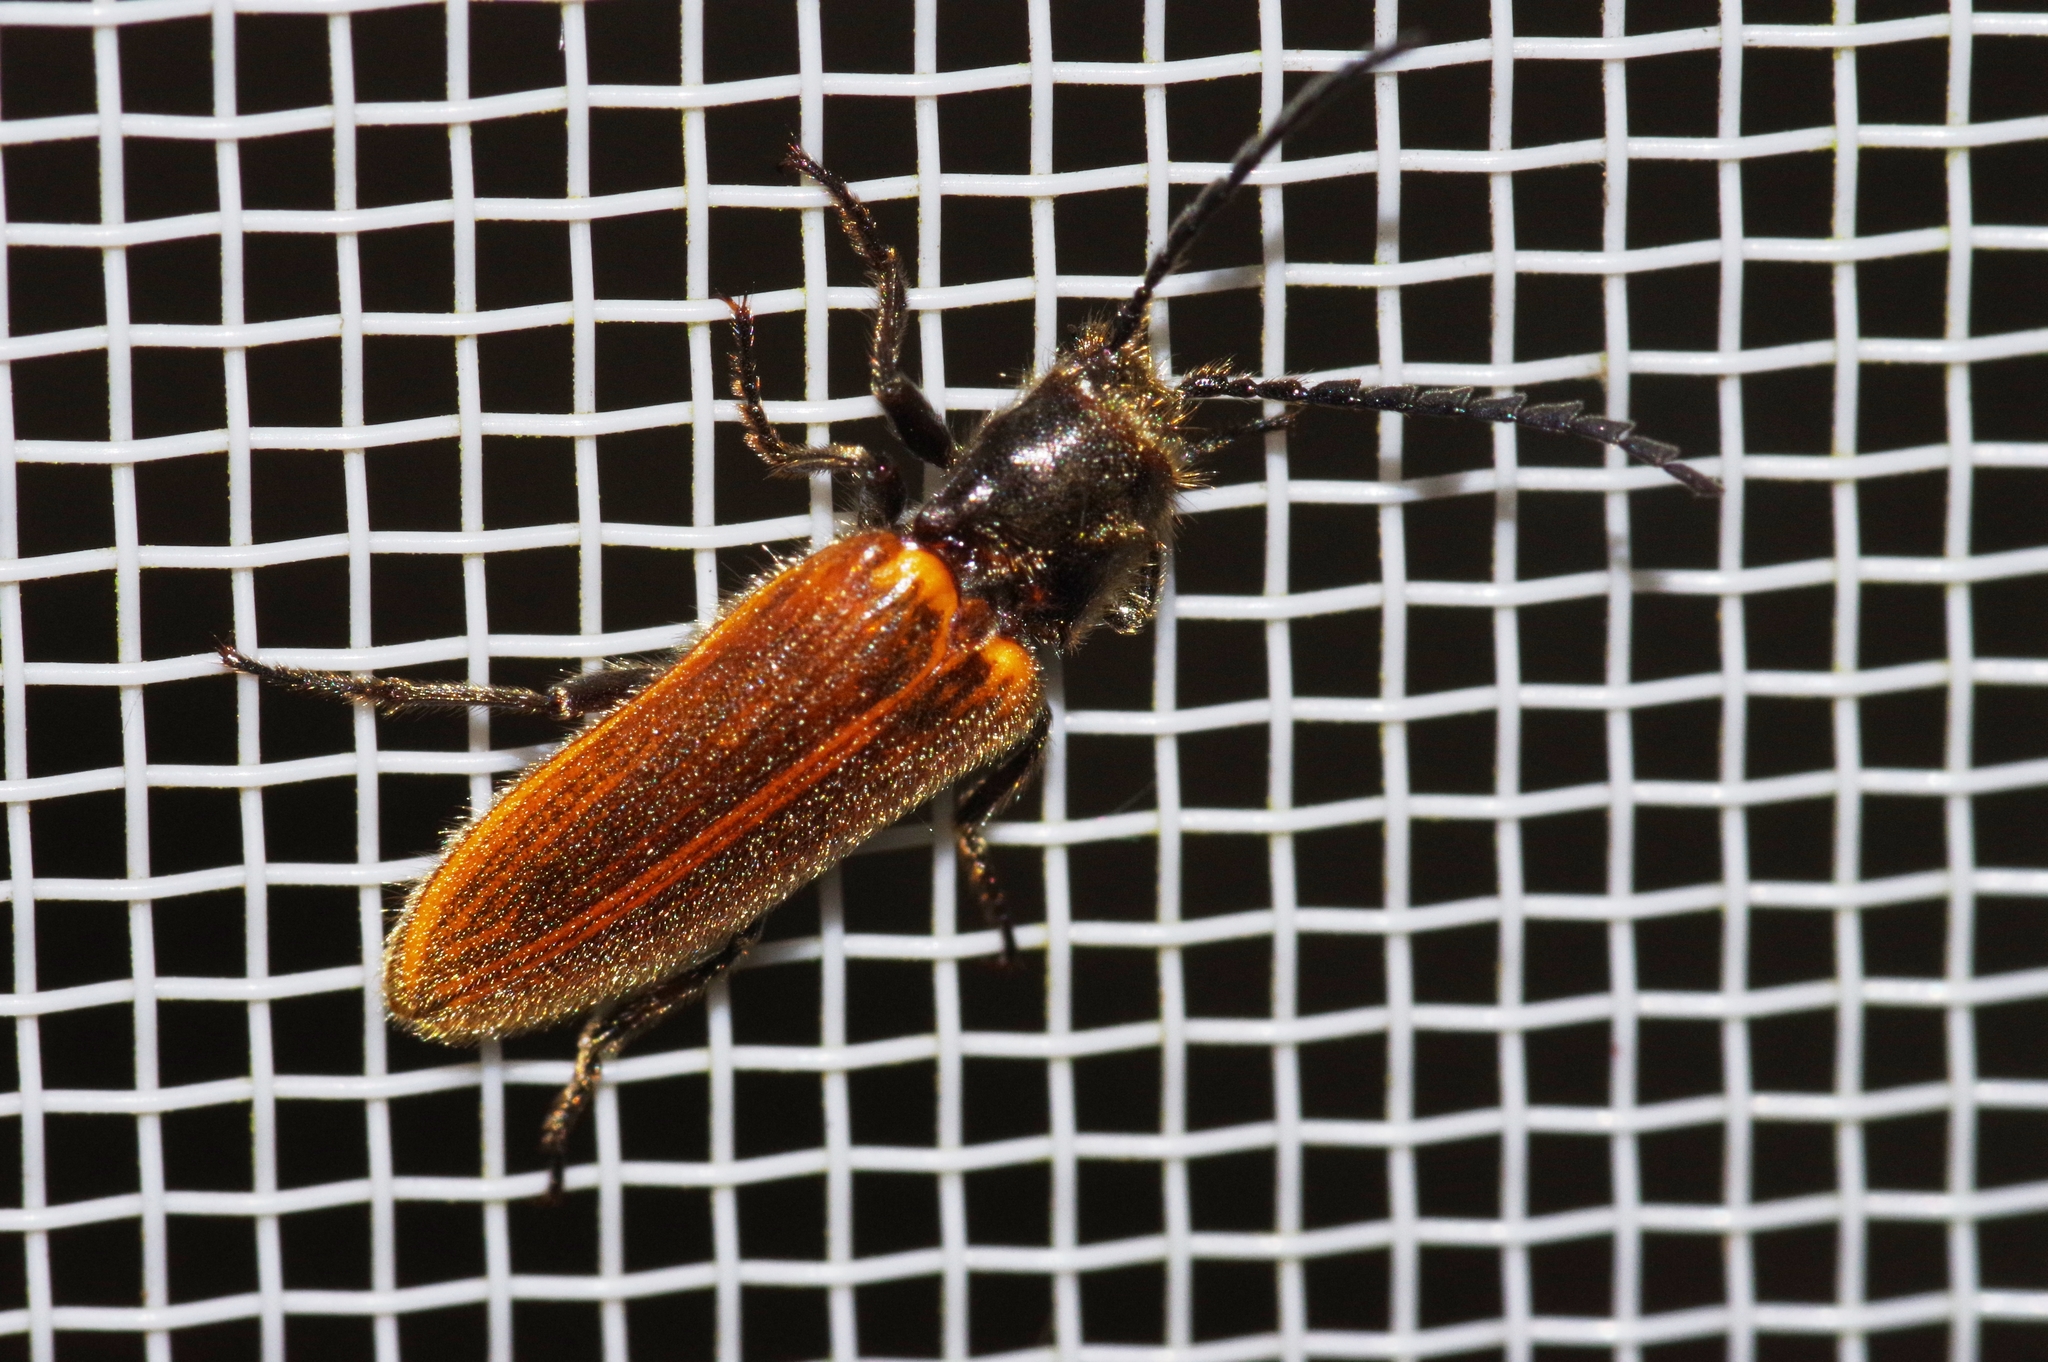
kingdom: Animalia
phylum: Arthropoda
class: Insecta
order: Coleoptera
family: Elateridae
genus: Hemiops
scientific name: Hemiops
